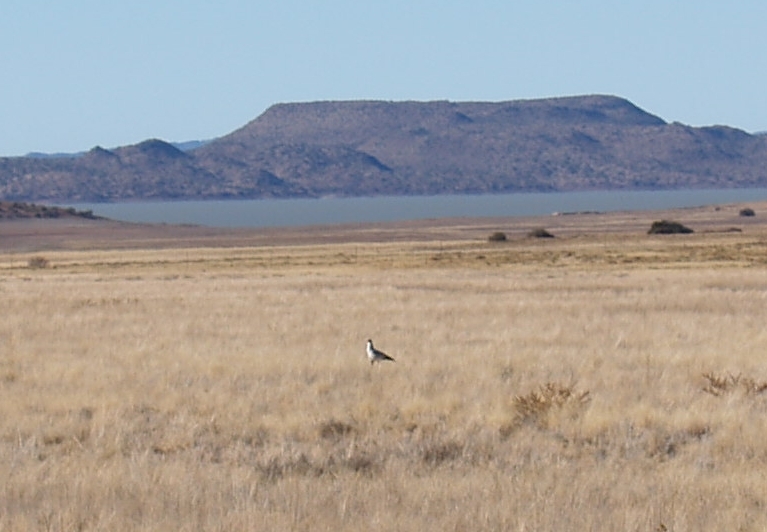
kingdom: Animalia
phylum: Chordata
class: Aves
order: Accipitriformes
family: Sagittariidae
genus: Sagittarius
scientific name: Sagittarius serpentarius
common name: Secretarybird
